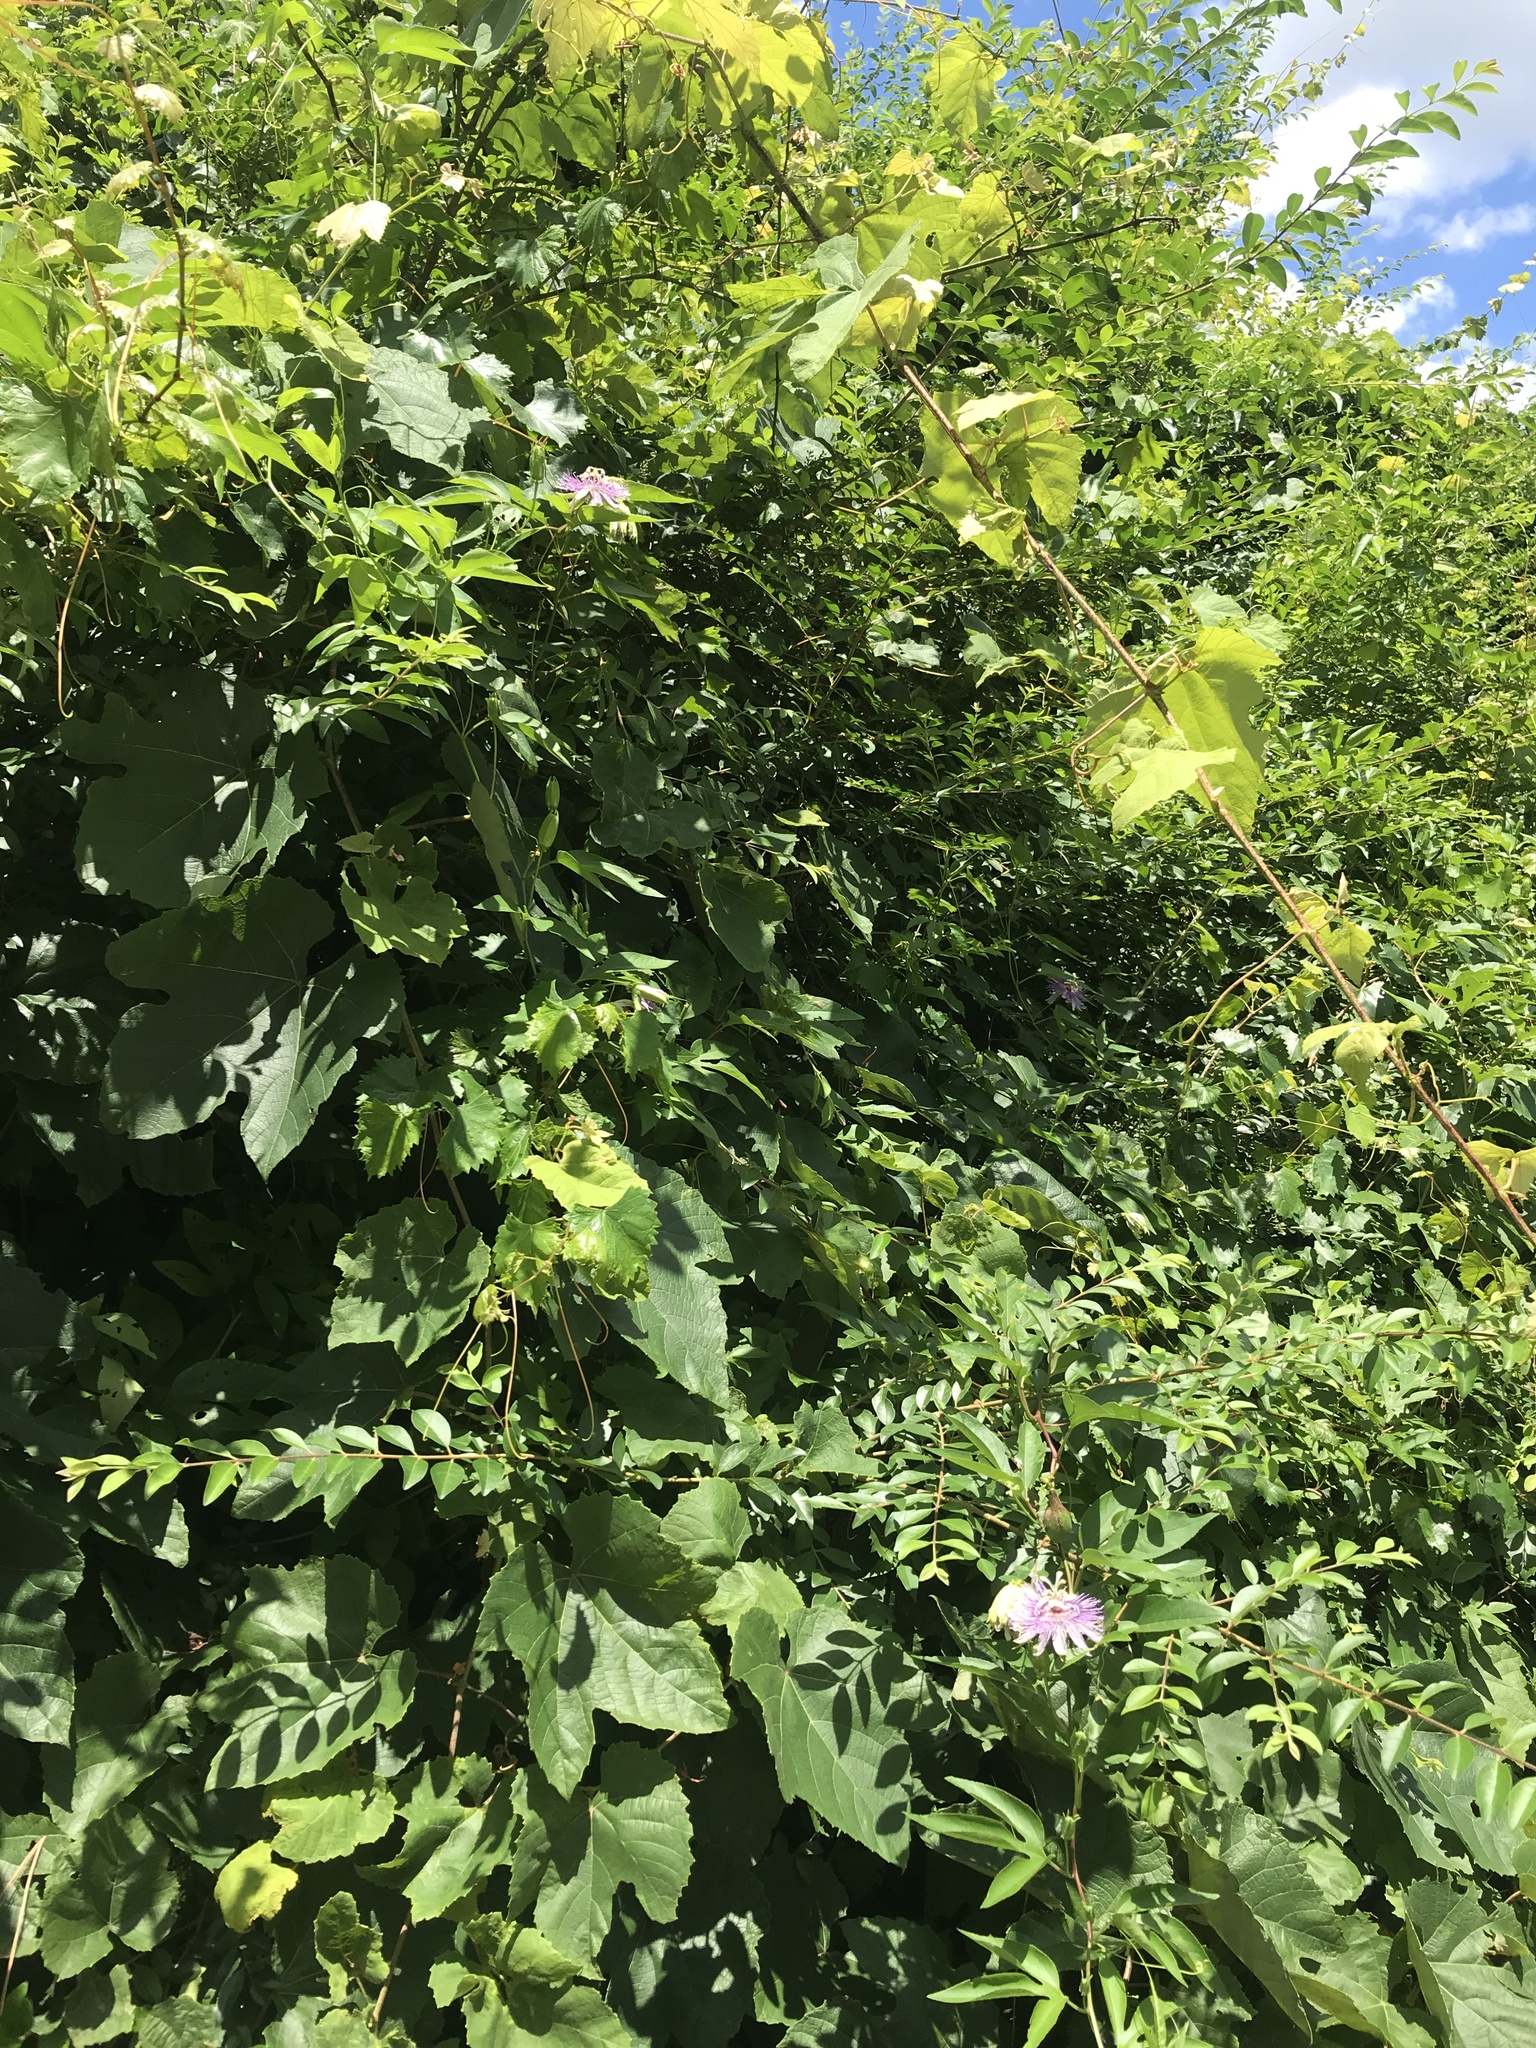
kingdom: Plantae
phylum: Tracheophyta
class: Magnoliopsida
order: Malpighiales
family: Passifloraceae
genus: Passiflora
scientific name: Passiflora incarnata
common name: Apricot-vine
